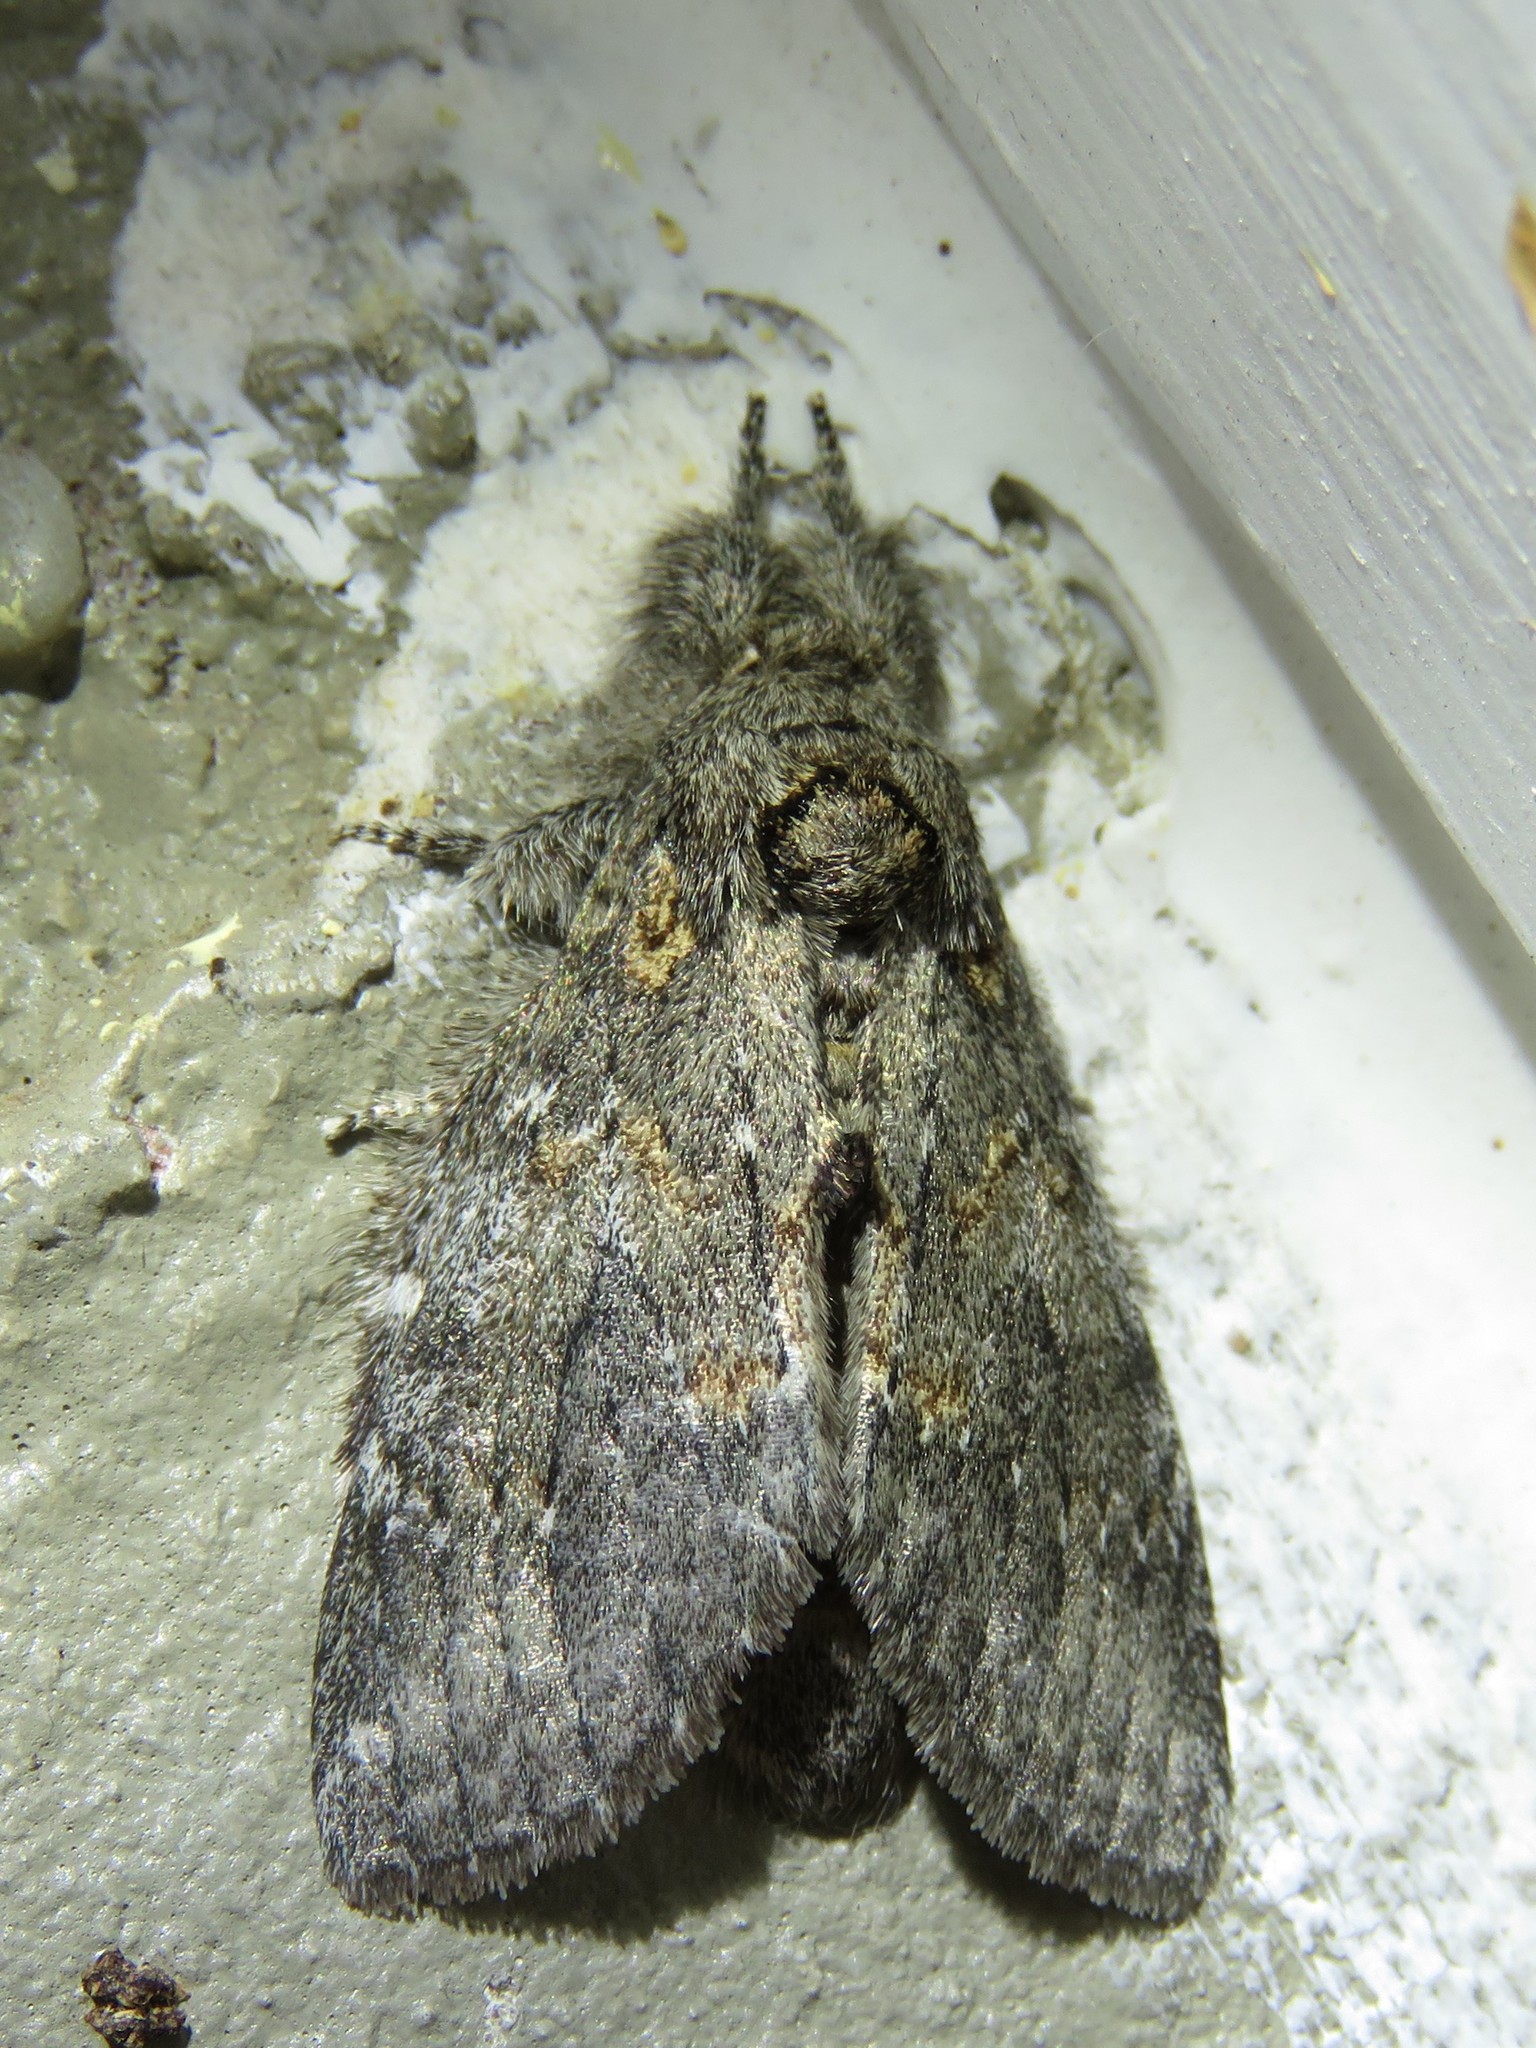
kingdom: Animalia
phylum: Arthropoda
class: Insecta
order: Lepidoptera
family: Notodontidae
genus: Peridea
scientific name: Peridea angulosa
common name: Angulose prominent
